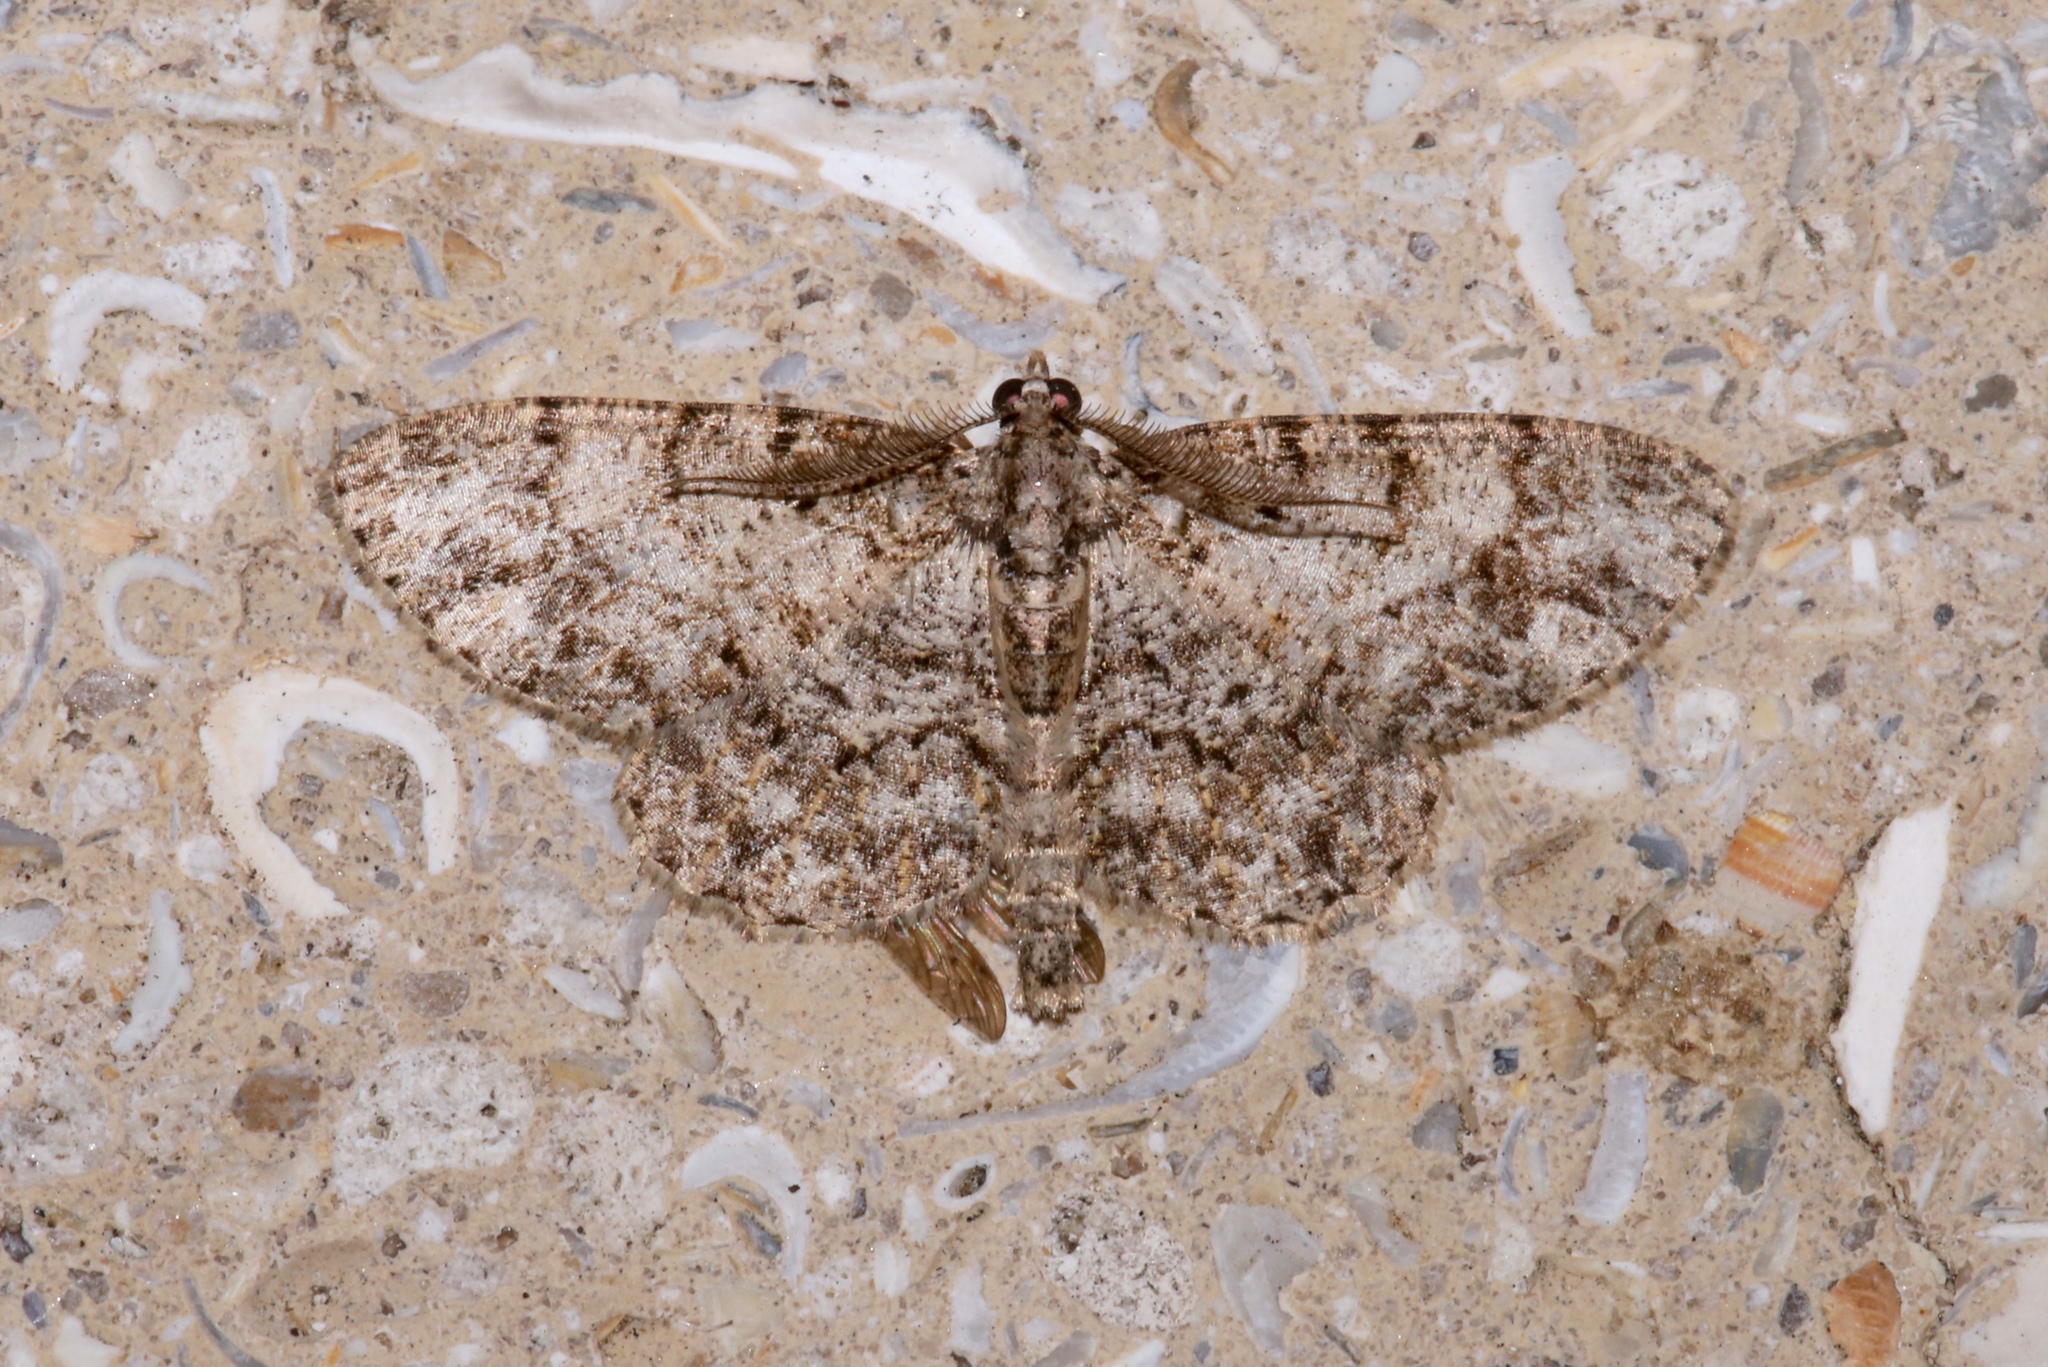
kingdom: Animalia
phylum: Arthropoda
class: Insecta
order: Lepidoptera
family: Geometridae
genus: Protoboarmia
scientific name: Protoboarmia porcelaria
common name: Porcelain gray
